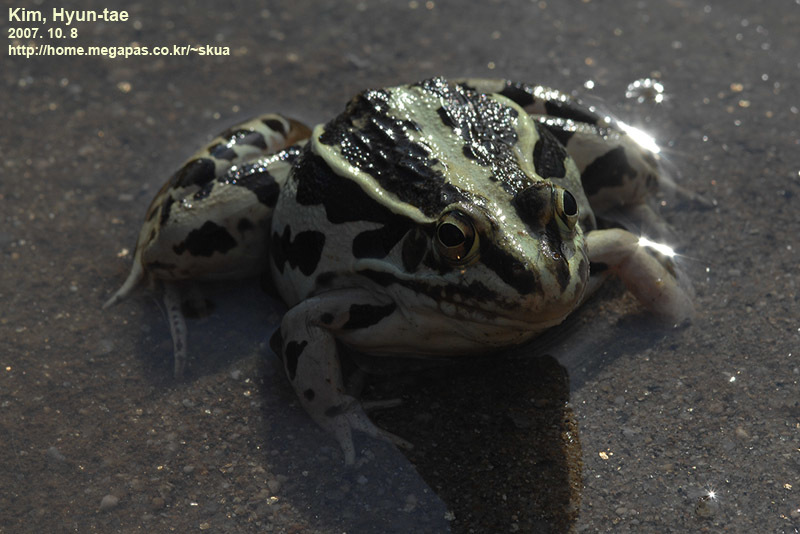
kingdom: Animalia
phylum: Chordata
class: Amphibia
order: Anura
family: Ranidae
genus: Pelophylax
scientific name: Pelophylax nigromaculatus
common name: Black-spotted pond frog
